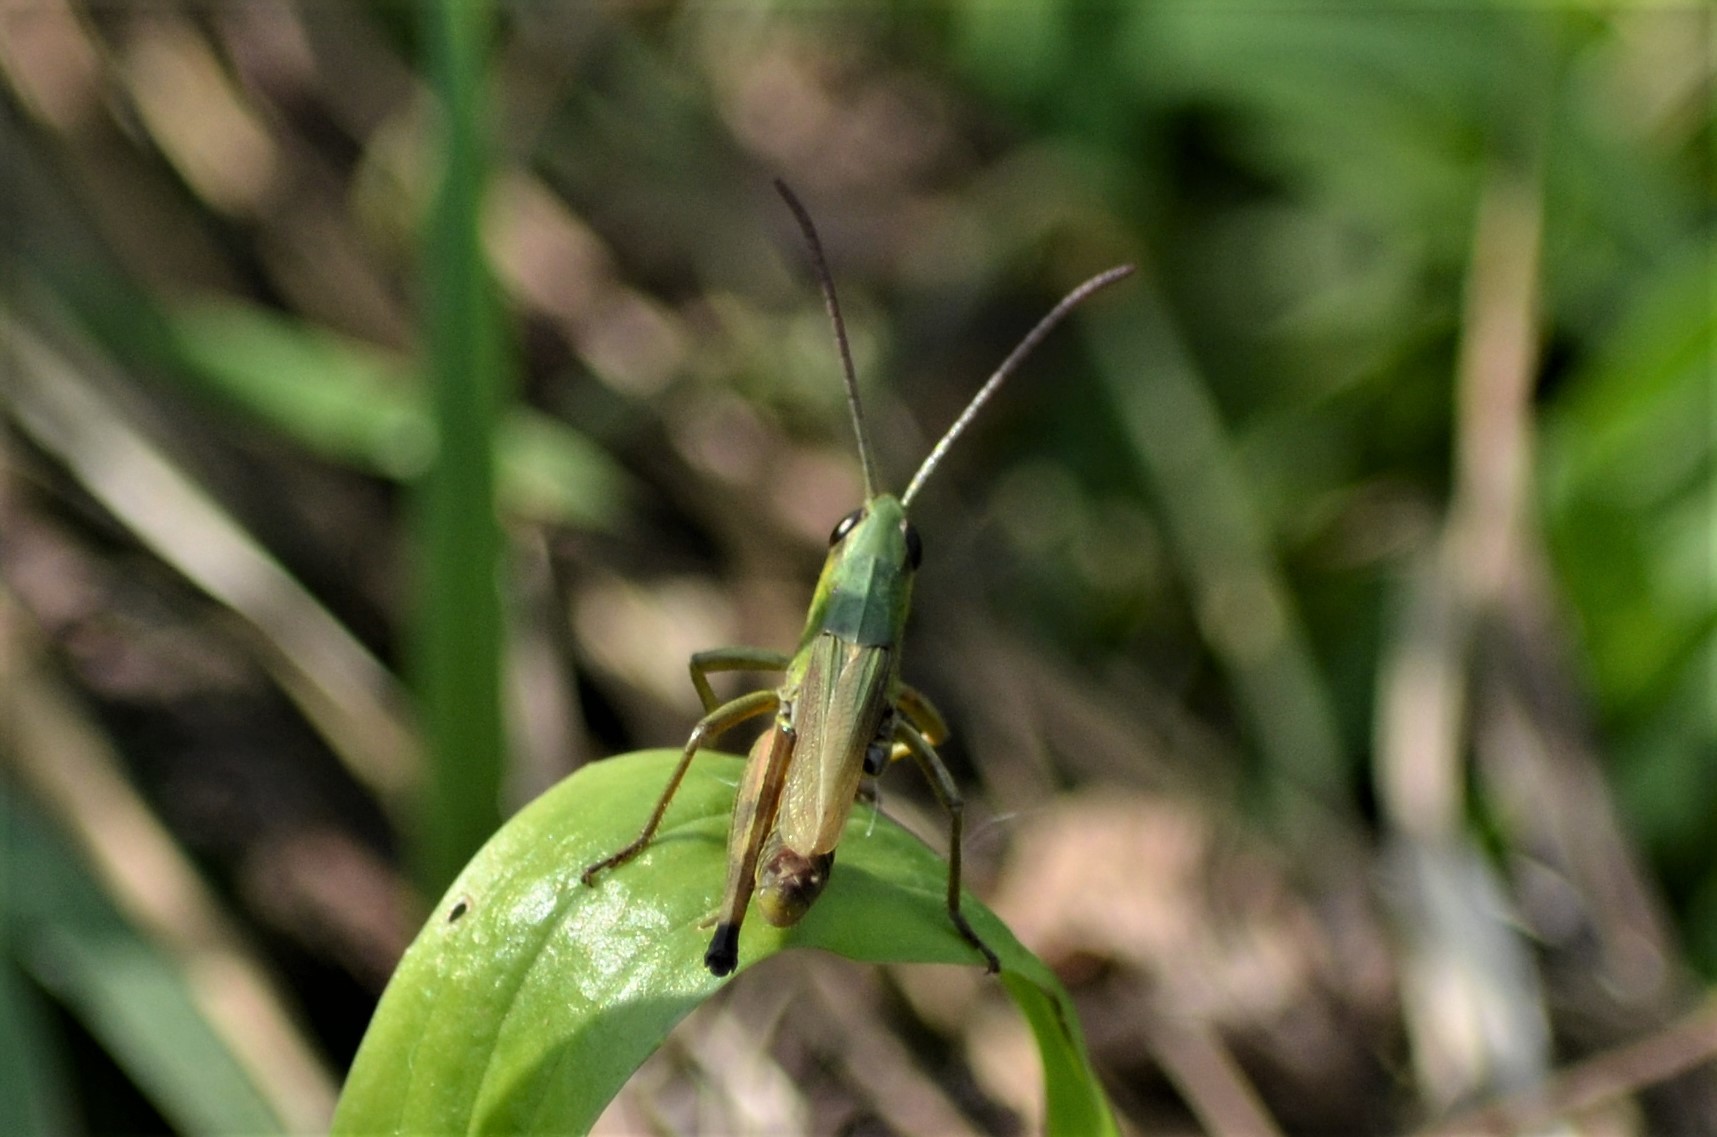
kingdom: Animalia
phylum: Arthropoda
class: Insecta
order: Orthoptera
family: Acrididae
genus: Pseudochorthippus
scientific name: Pseudochorthippus parallelus
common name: Meadow grasshopper
